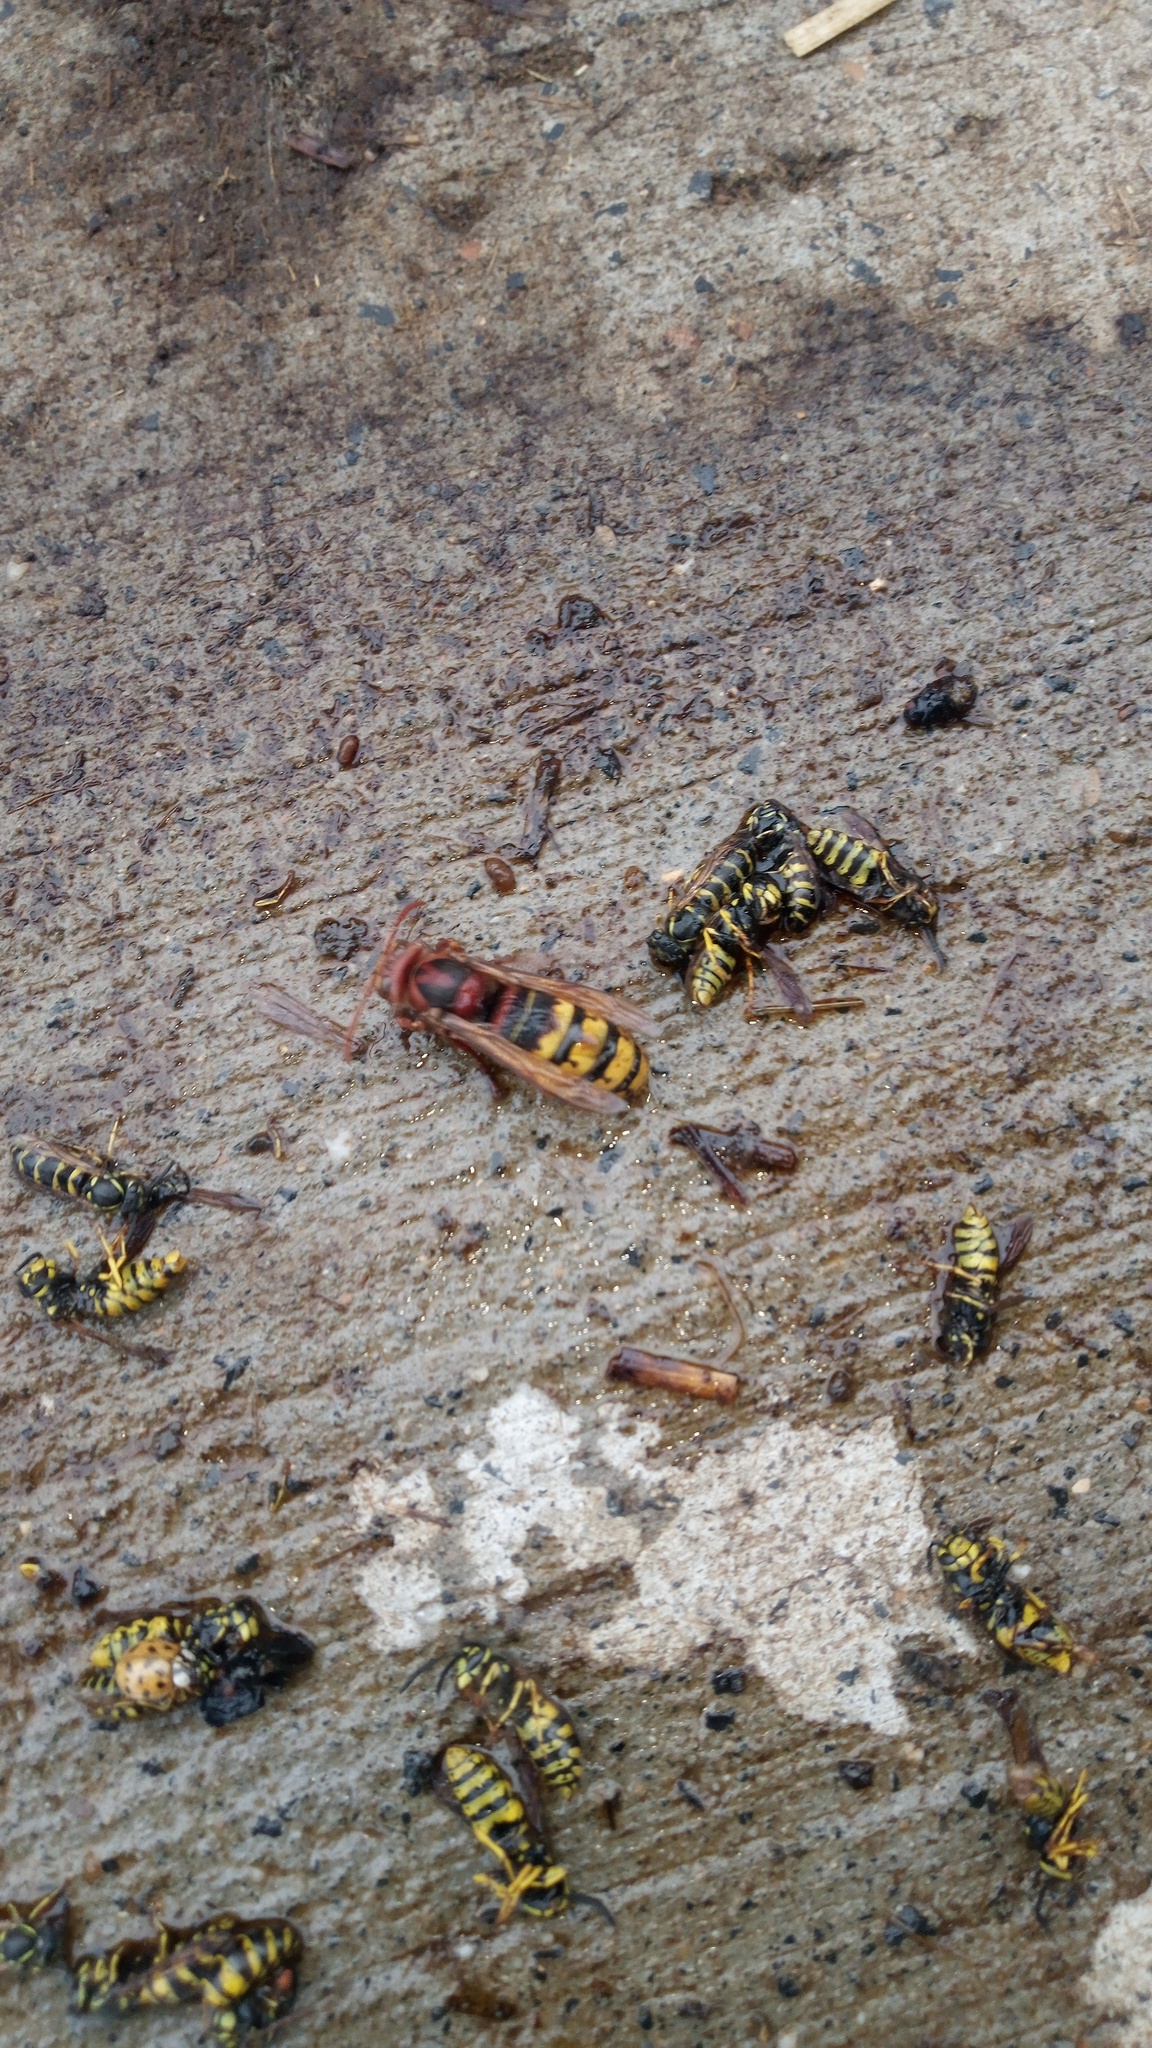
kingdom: Animalia
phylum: Arthropoda
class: Insecta
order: Hymenoptera
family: Vespidae
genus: Vespa
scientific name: Vespa crabro
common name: Hornet
